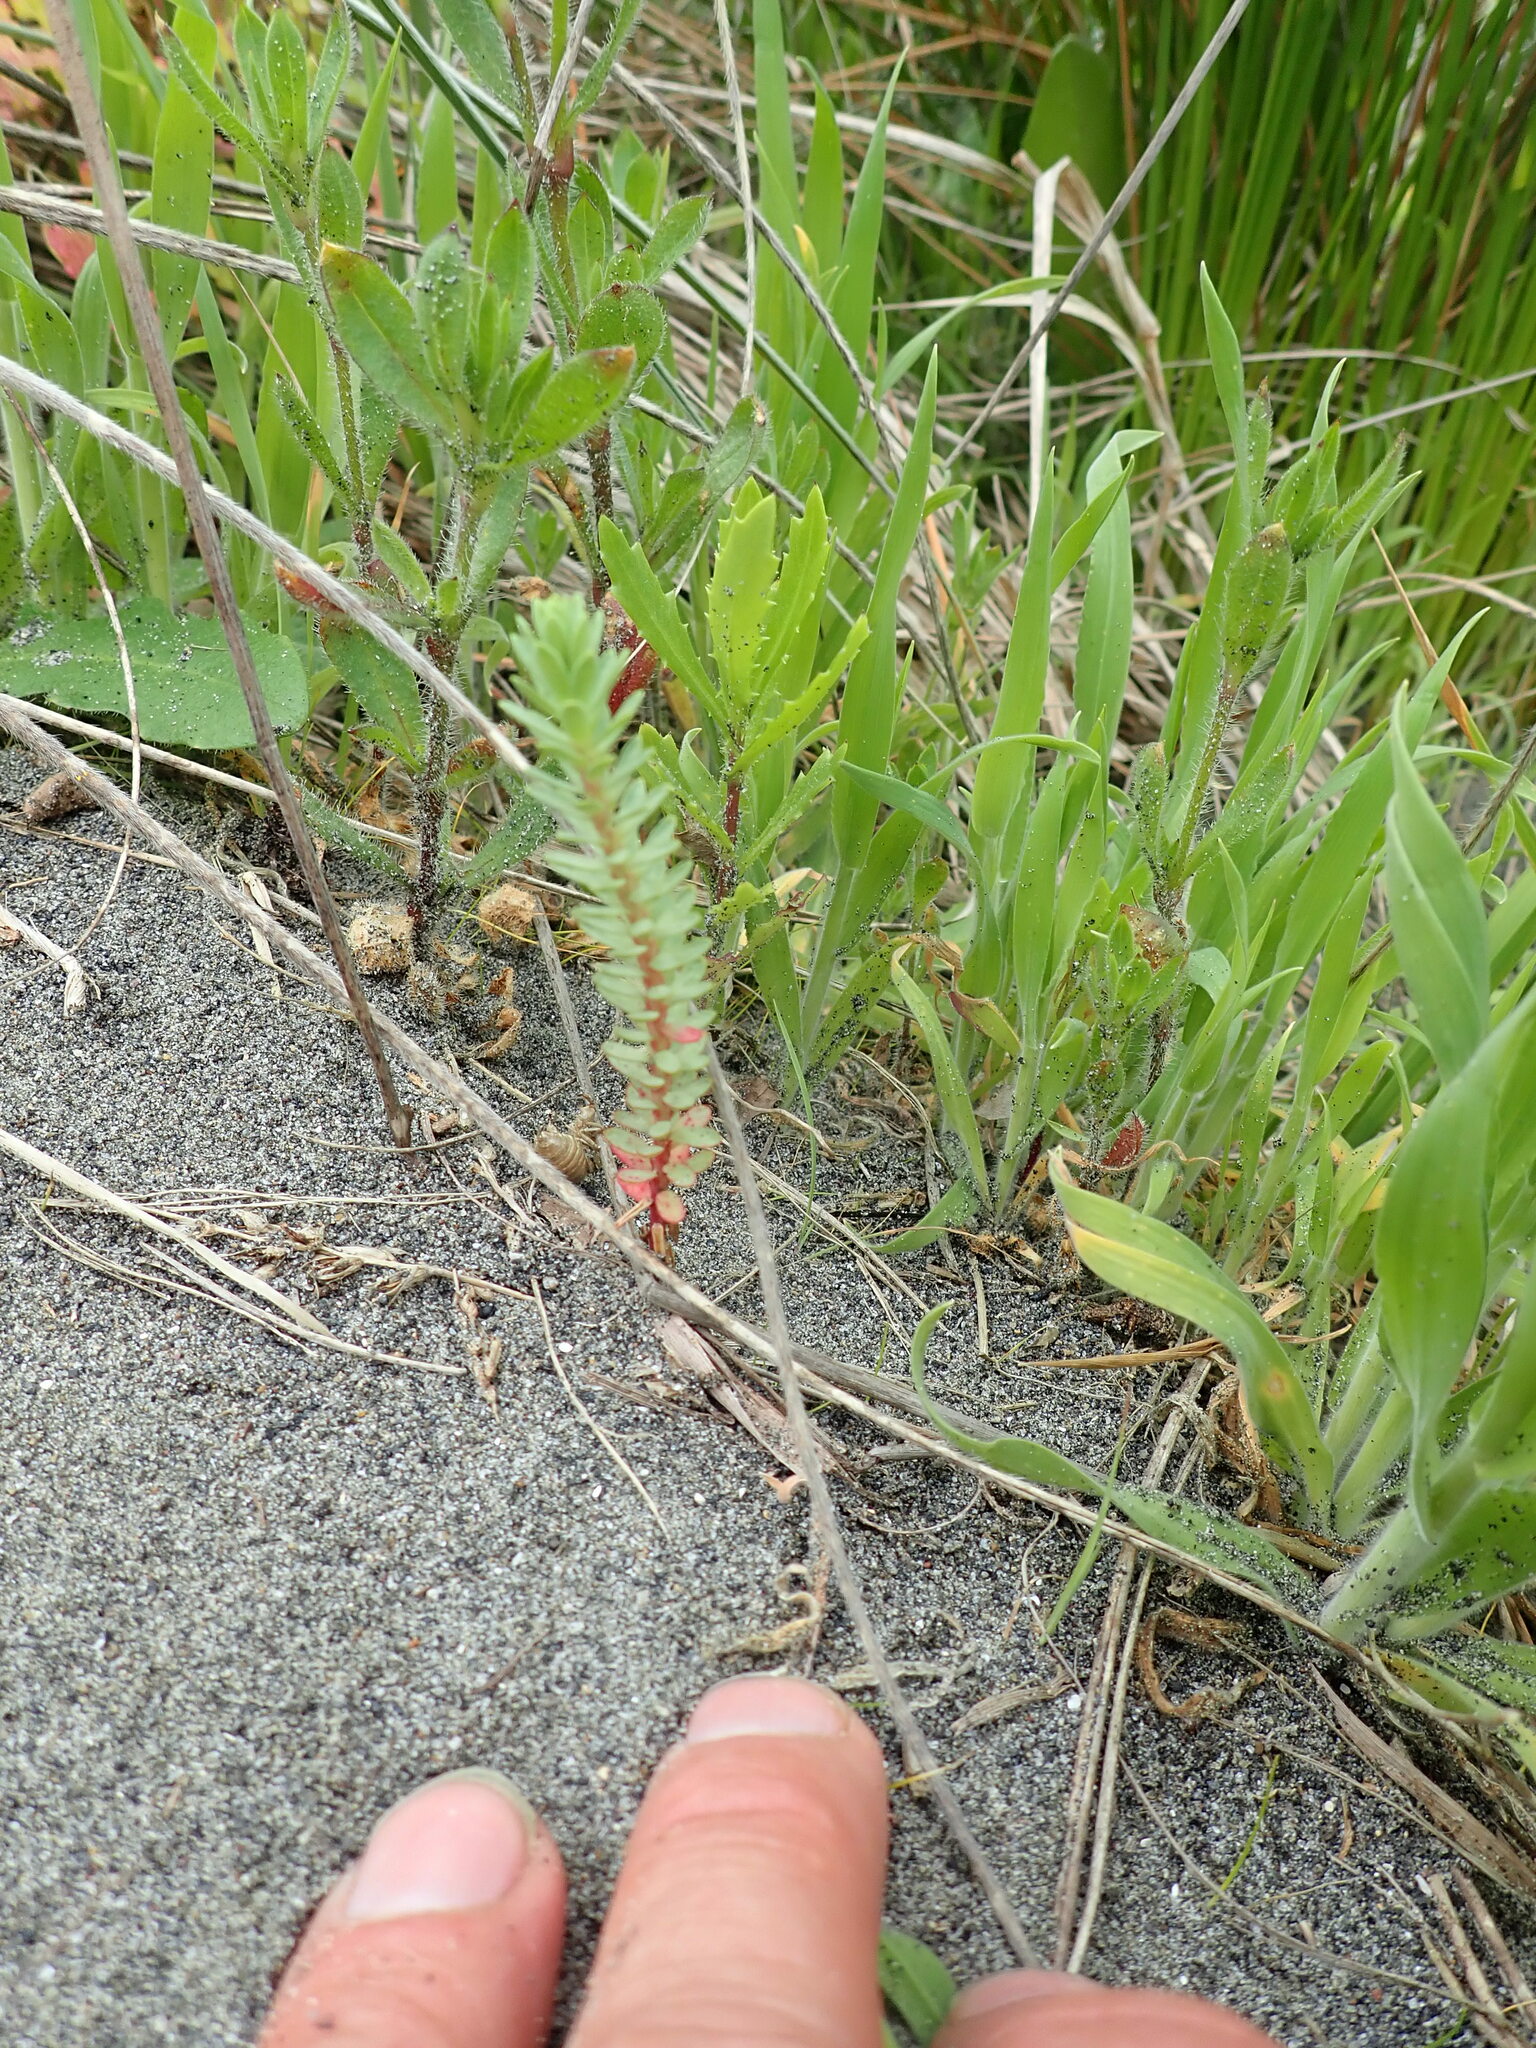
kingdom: Plantae
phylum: Tracheophyta
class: Magnoliopsida
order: Malpighiales
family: Euphorbiaceae
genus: Euphorbia
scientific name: Euphorbia paralias
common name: Sea spurge
